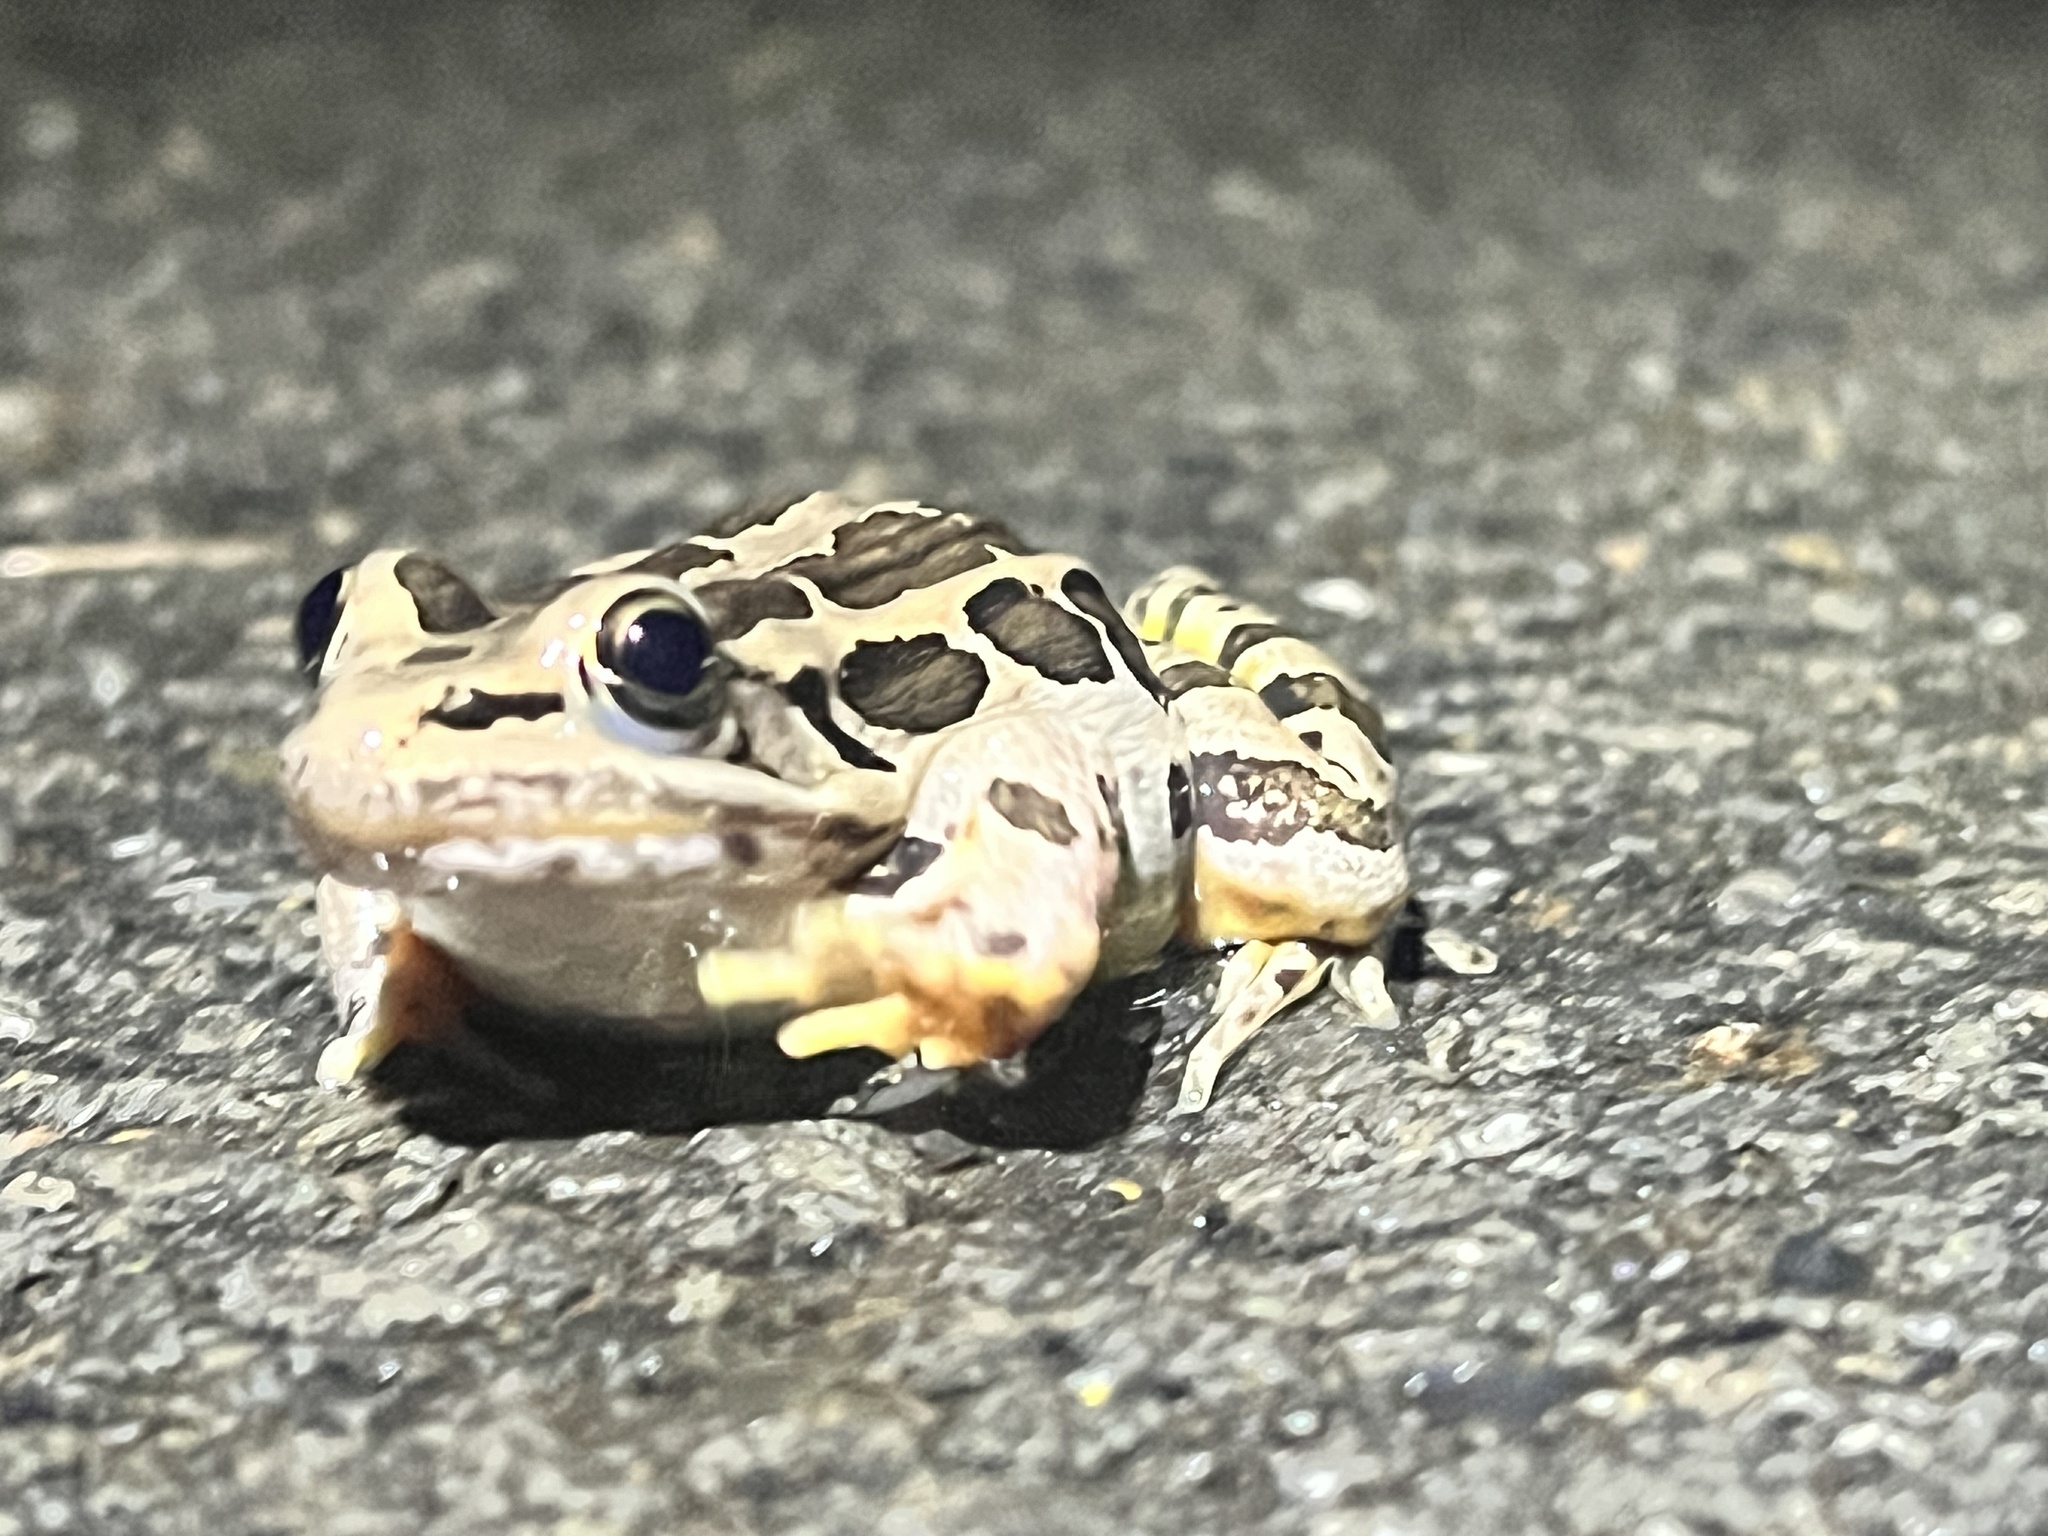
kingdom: Animalia
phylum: Chordata
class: Amphibia
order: Anura
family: Ranidae
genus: Lithobates
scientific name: Lithobates palustris
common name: Pickerel frog
